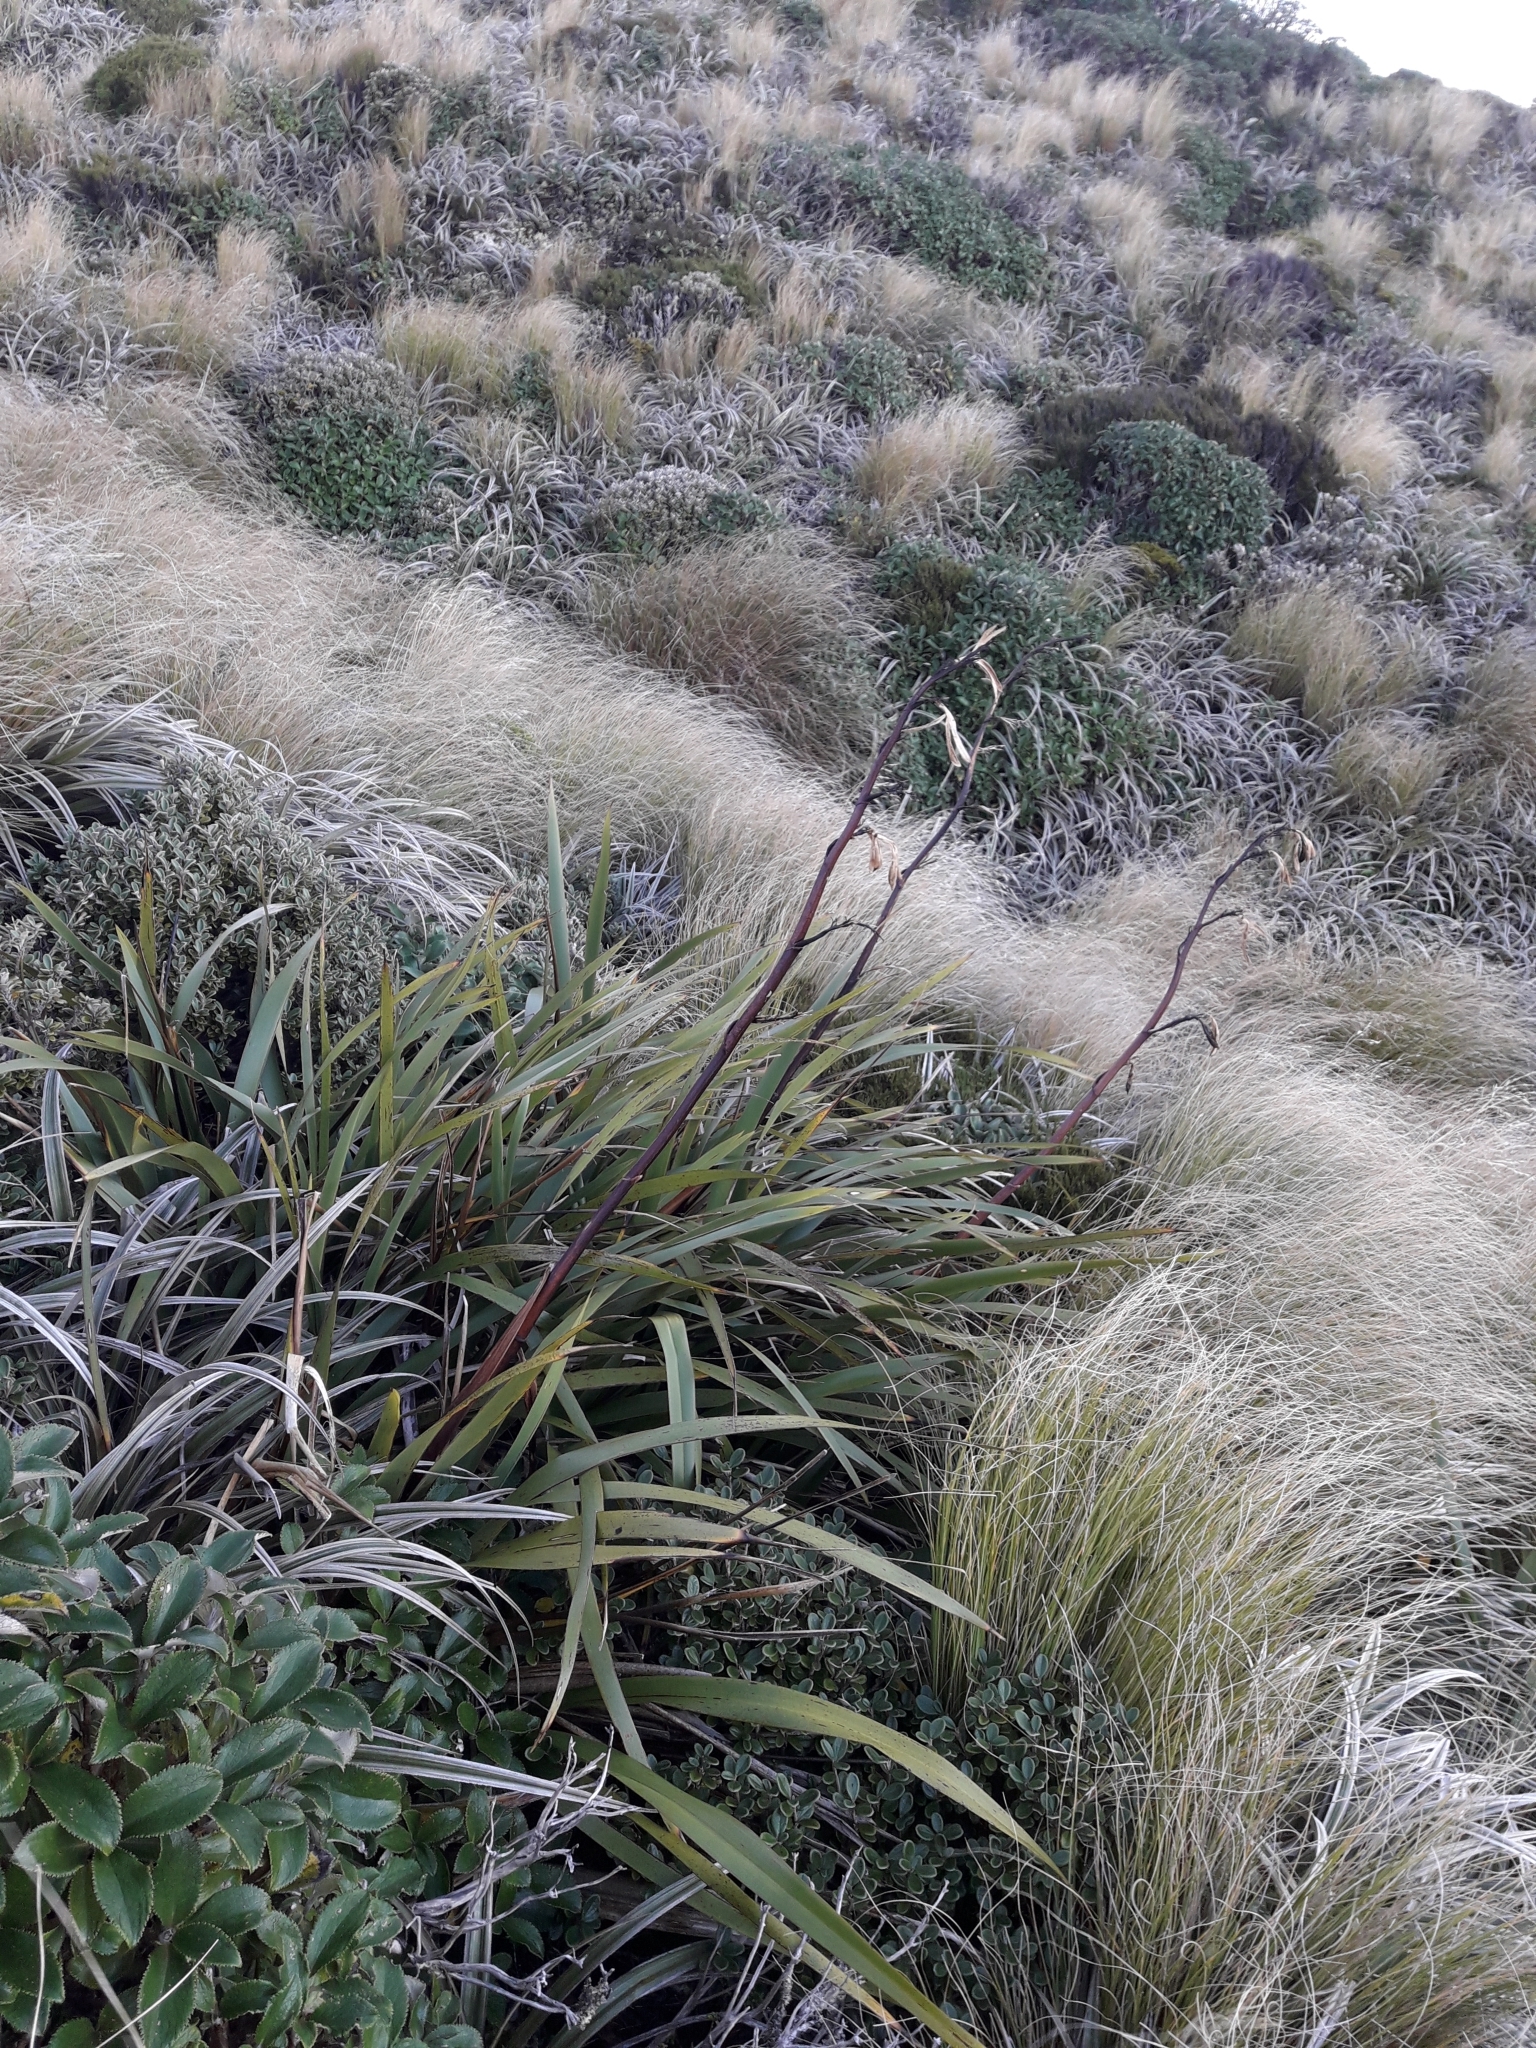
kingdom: Plantae
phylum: Tracheophyta
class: Liliopsida
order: Asparagales
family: Asphodelaceae
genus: Phormium
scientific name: Phormium colensoi
